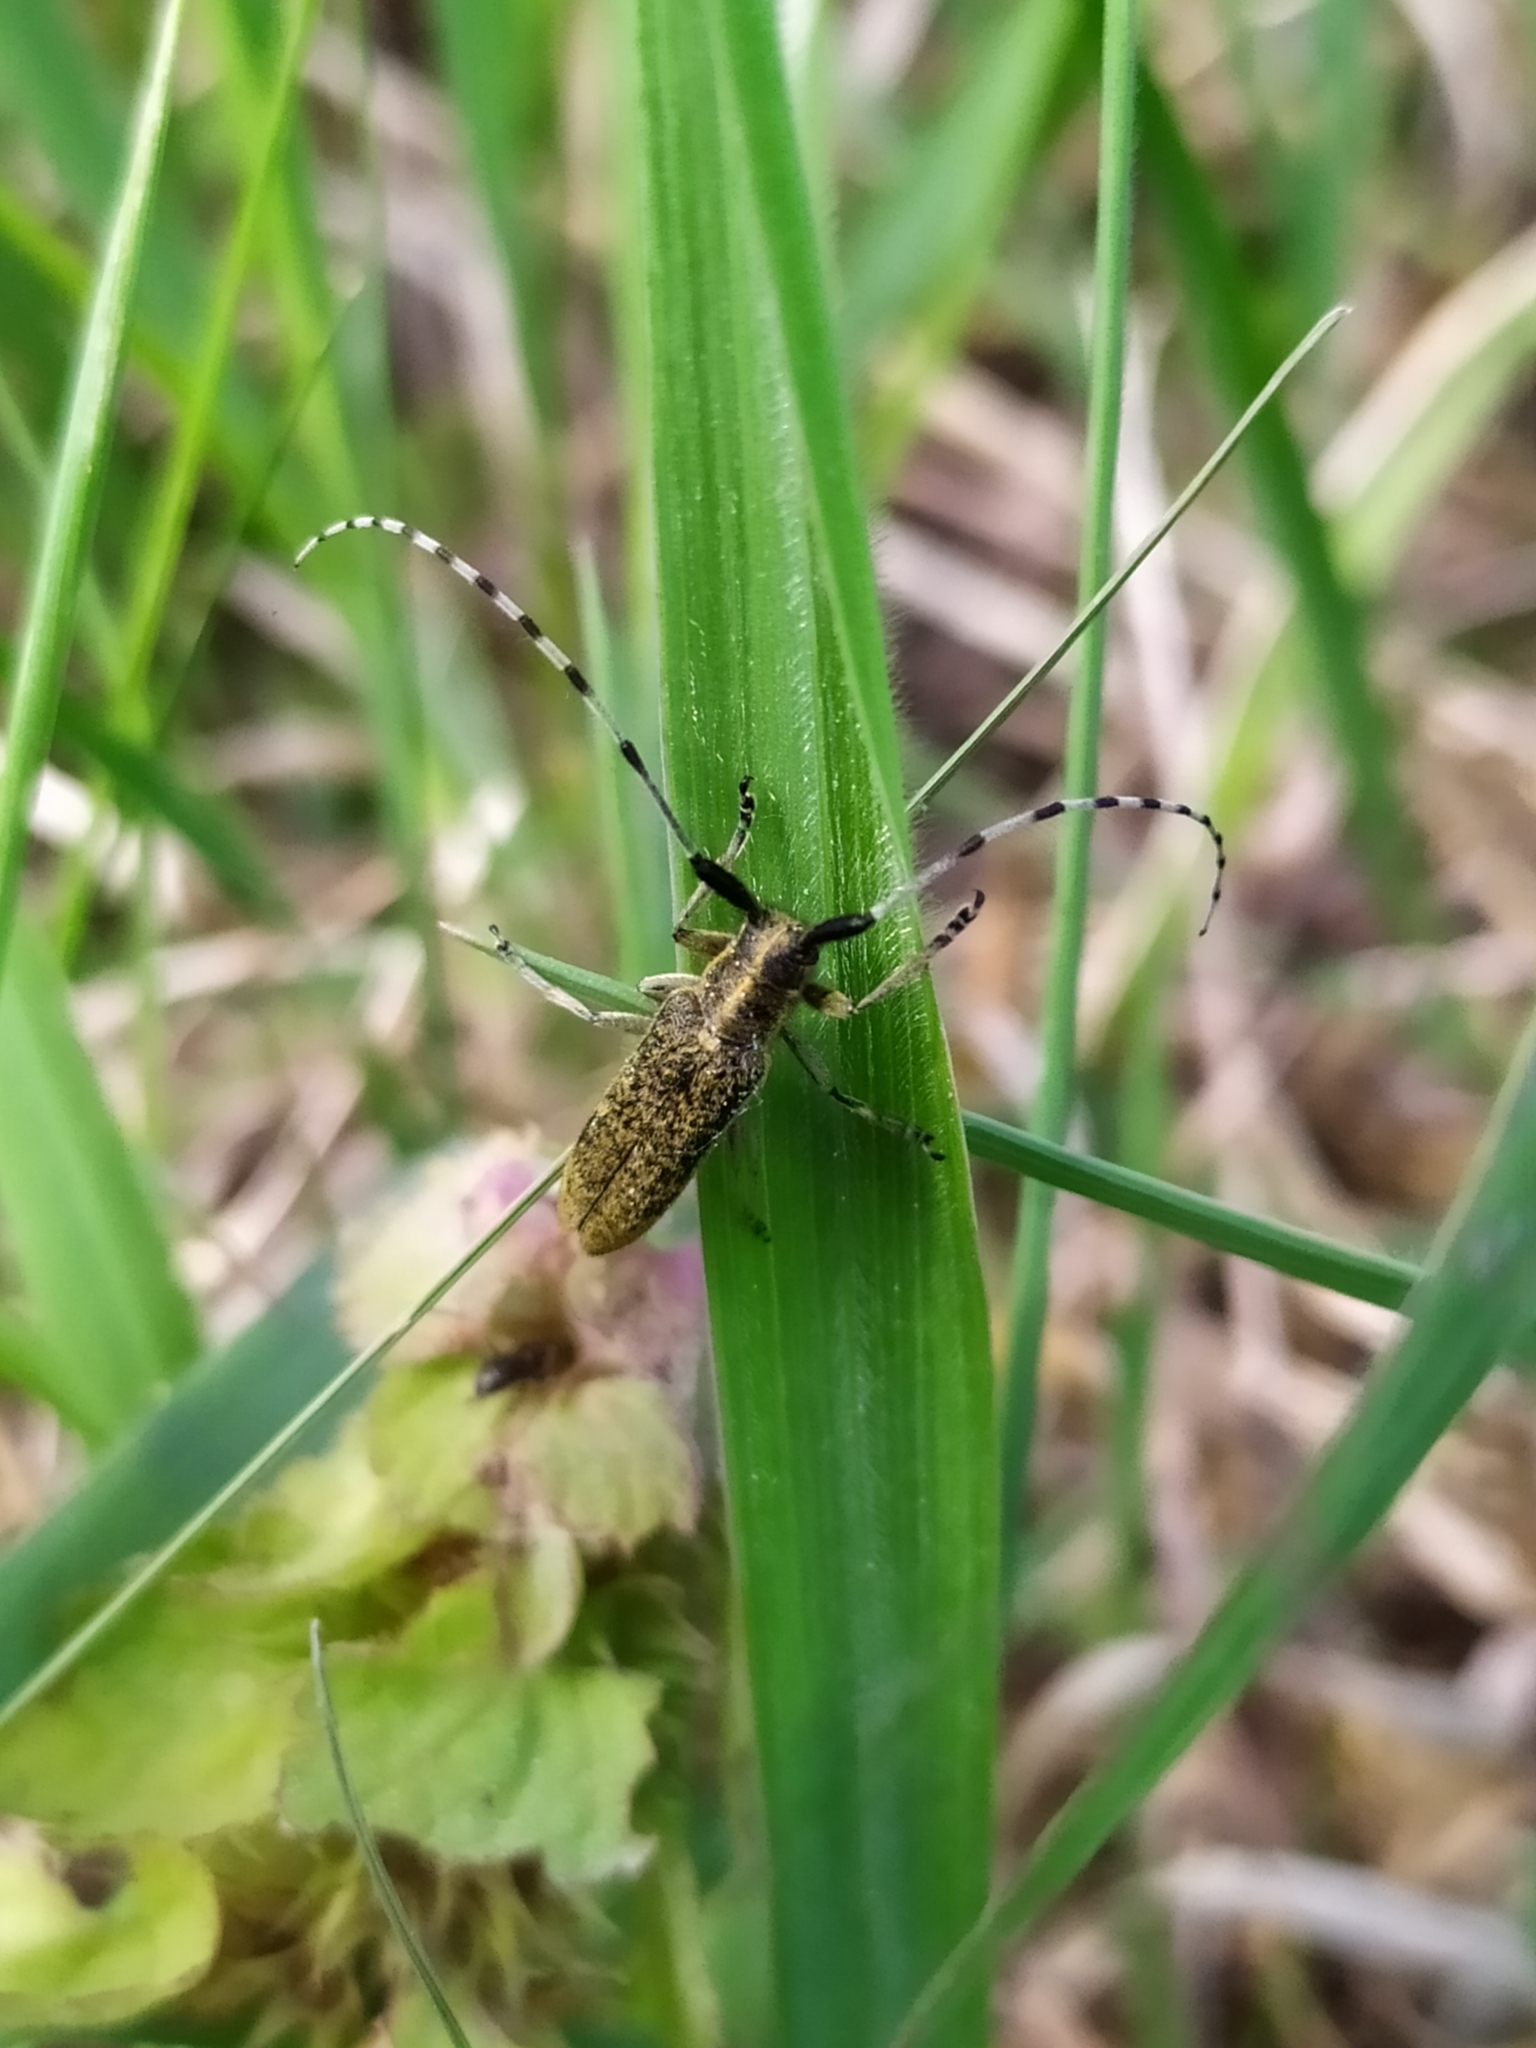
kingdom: Animalia
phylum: Arthropoda
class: Insecta
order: Coleoptera
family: Cerambycidae
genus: Agapanthia
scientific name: Agapanthia villosoviridescens
